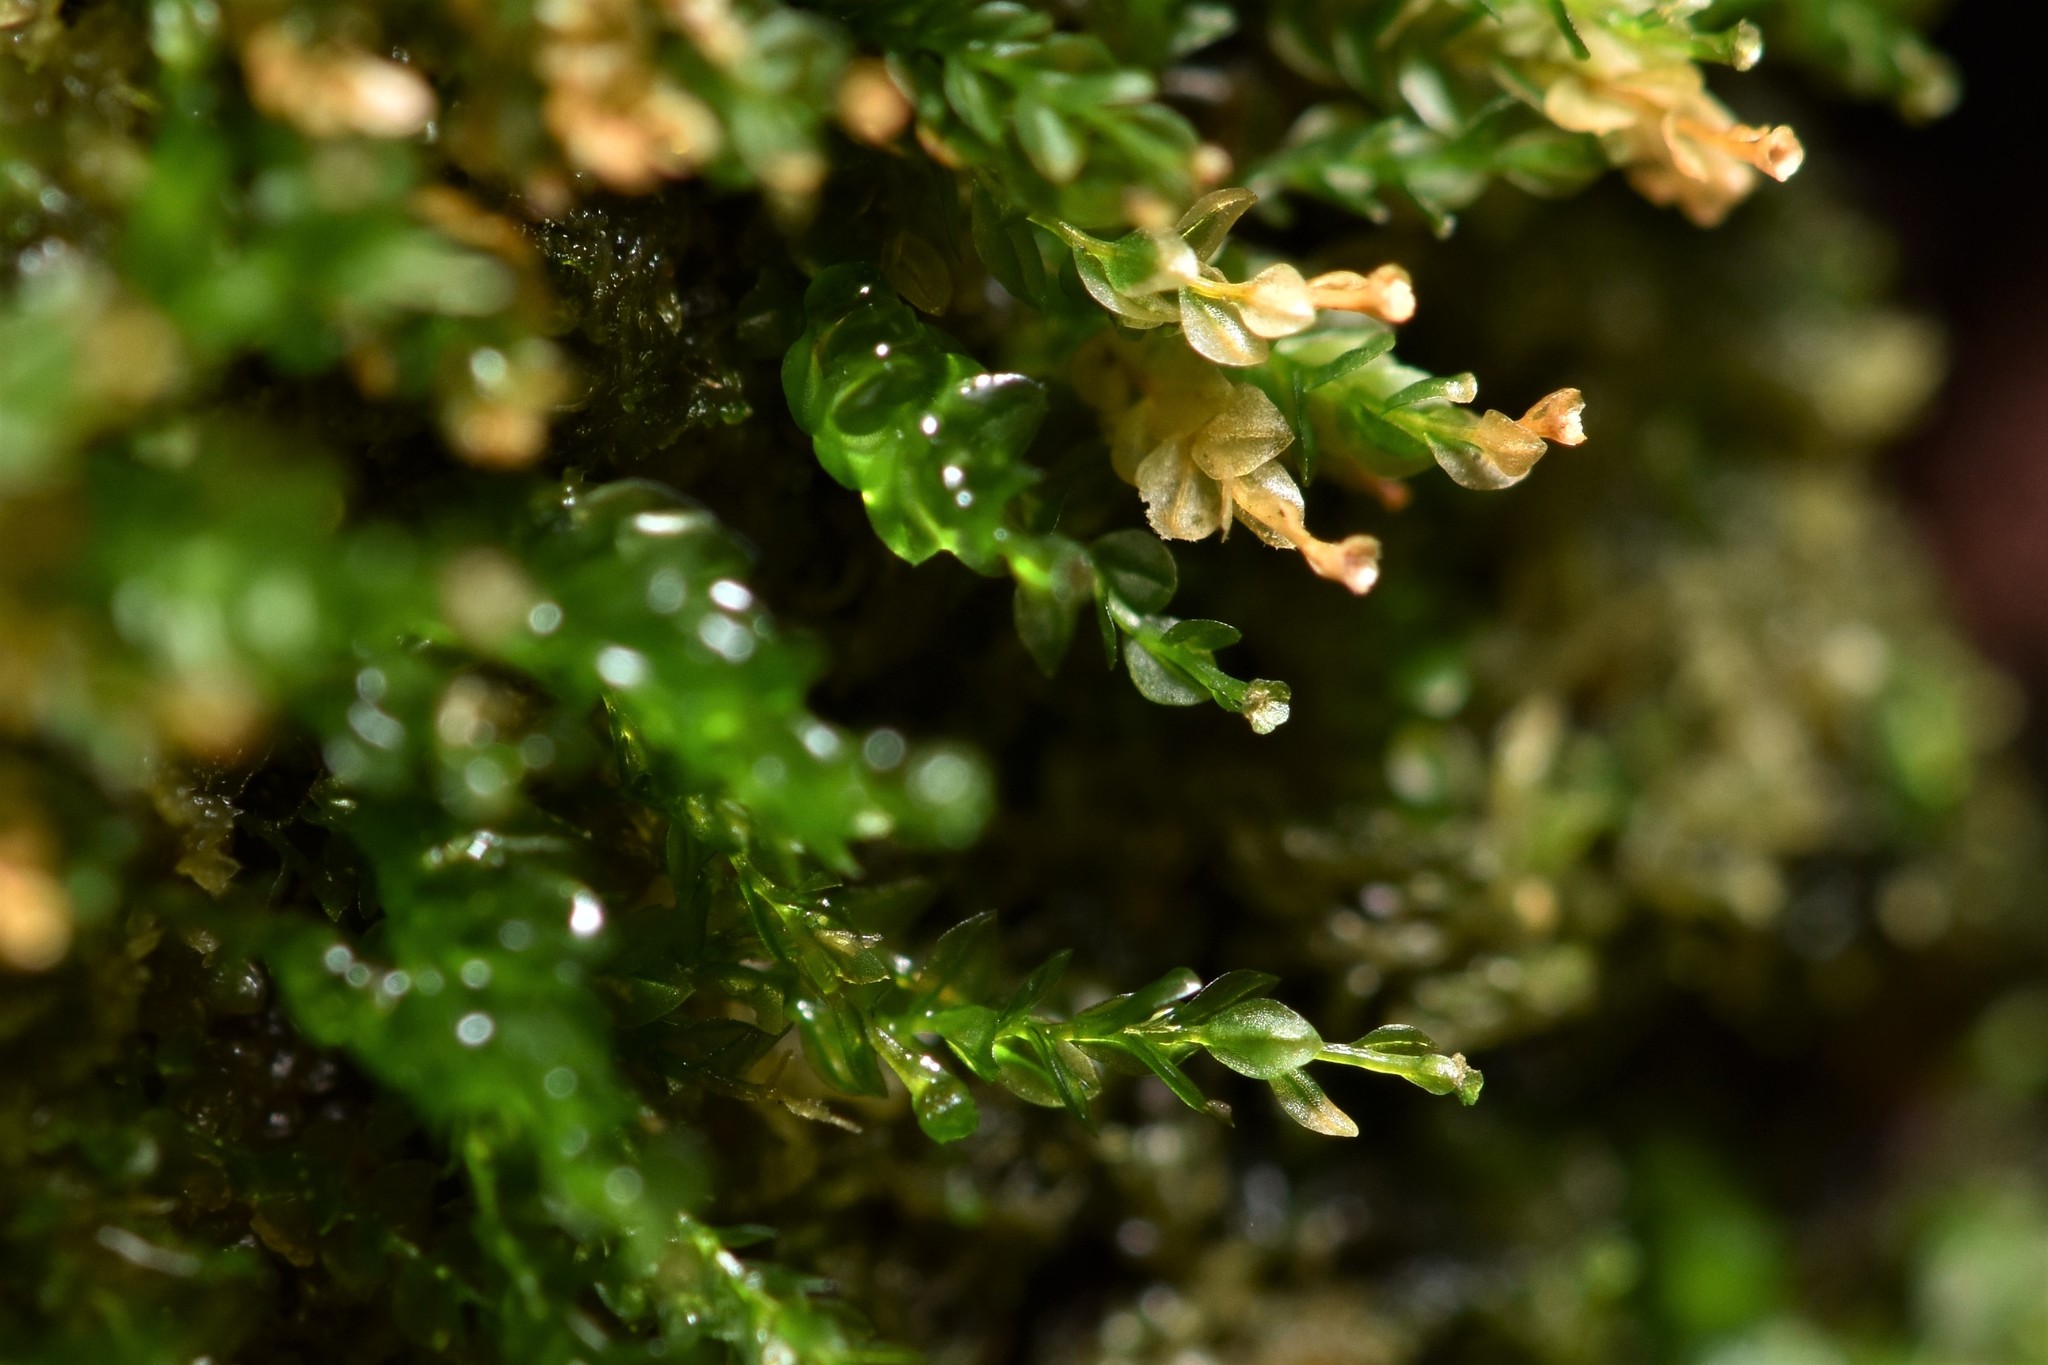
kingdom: Plantae
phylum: Bryophyta
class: Polytrichopsida
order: Tetraphidales
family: Tetraphidaceae
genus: Tetraphis
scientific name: Tetraphis pellucida
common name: Common four-toothed moss
